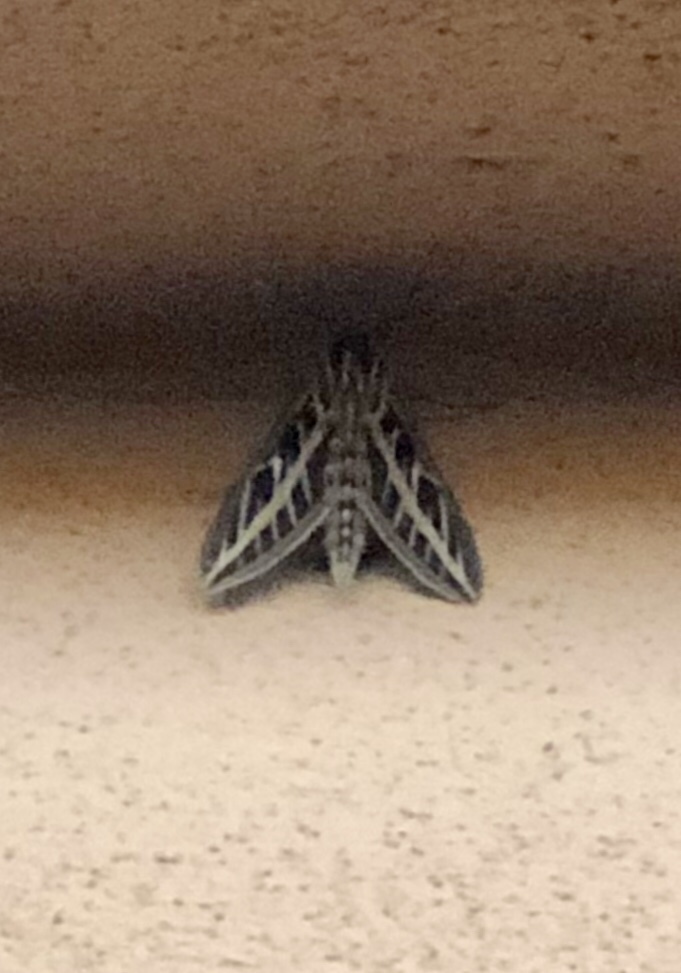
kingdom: Animalia
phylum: Arthropoda
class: Insecta
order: Lepidoptera
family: Sphingidae
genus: Hyles
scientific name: Hyles lineata
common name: White-lined sphinx
